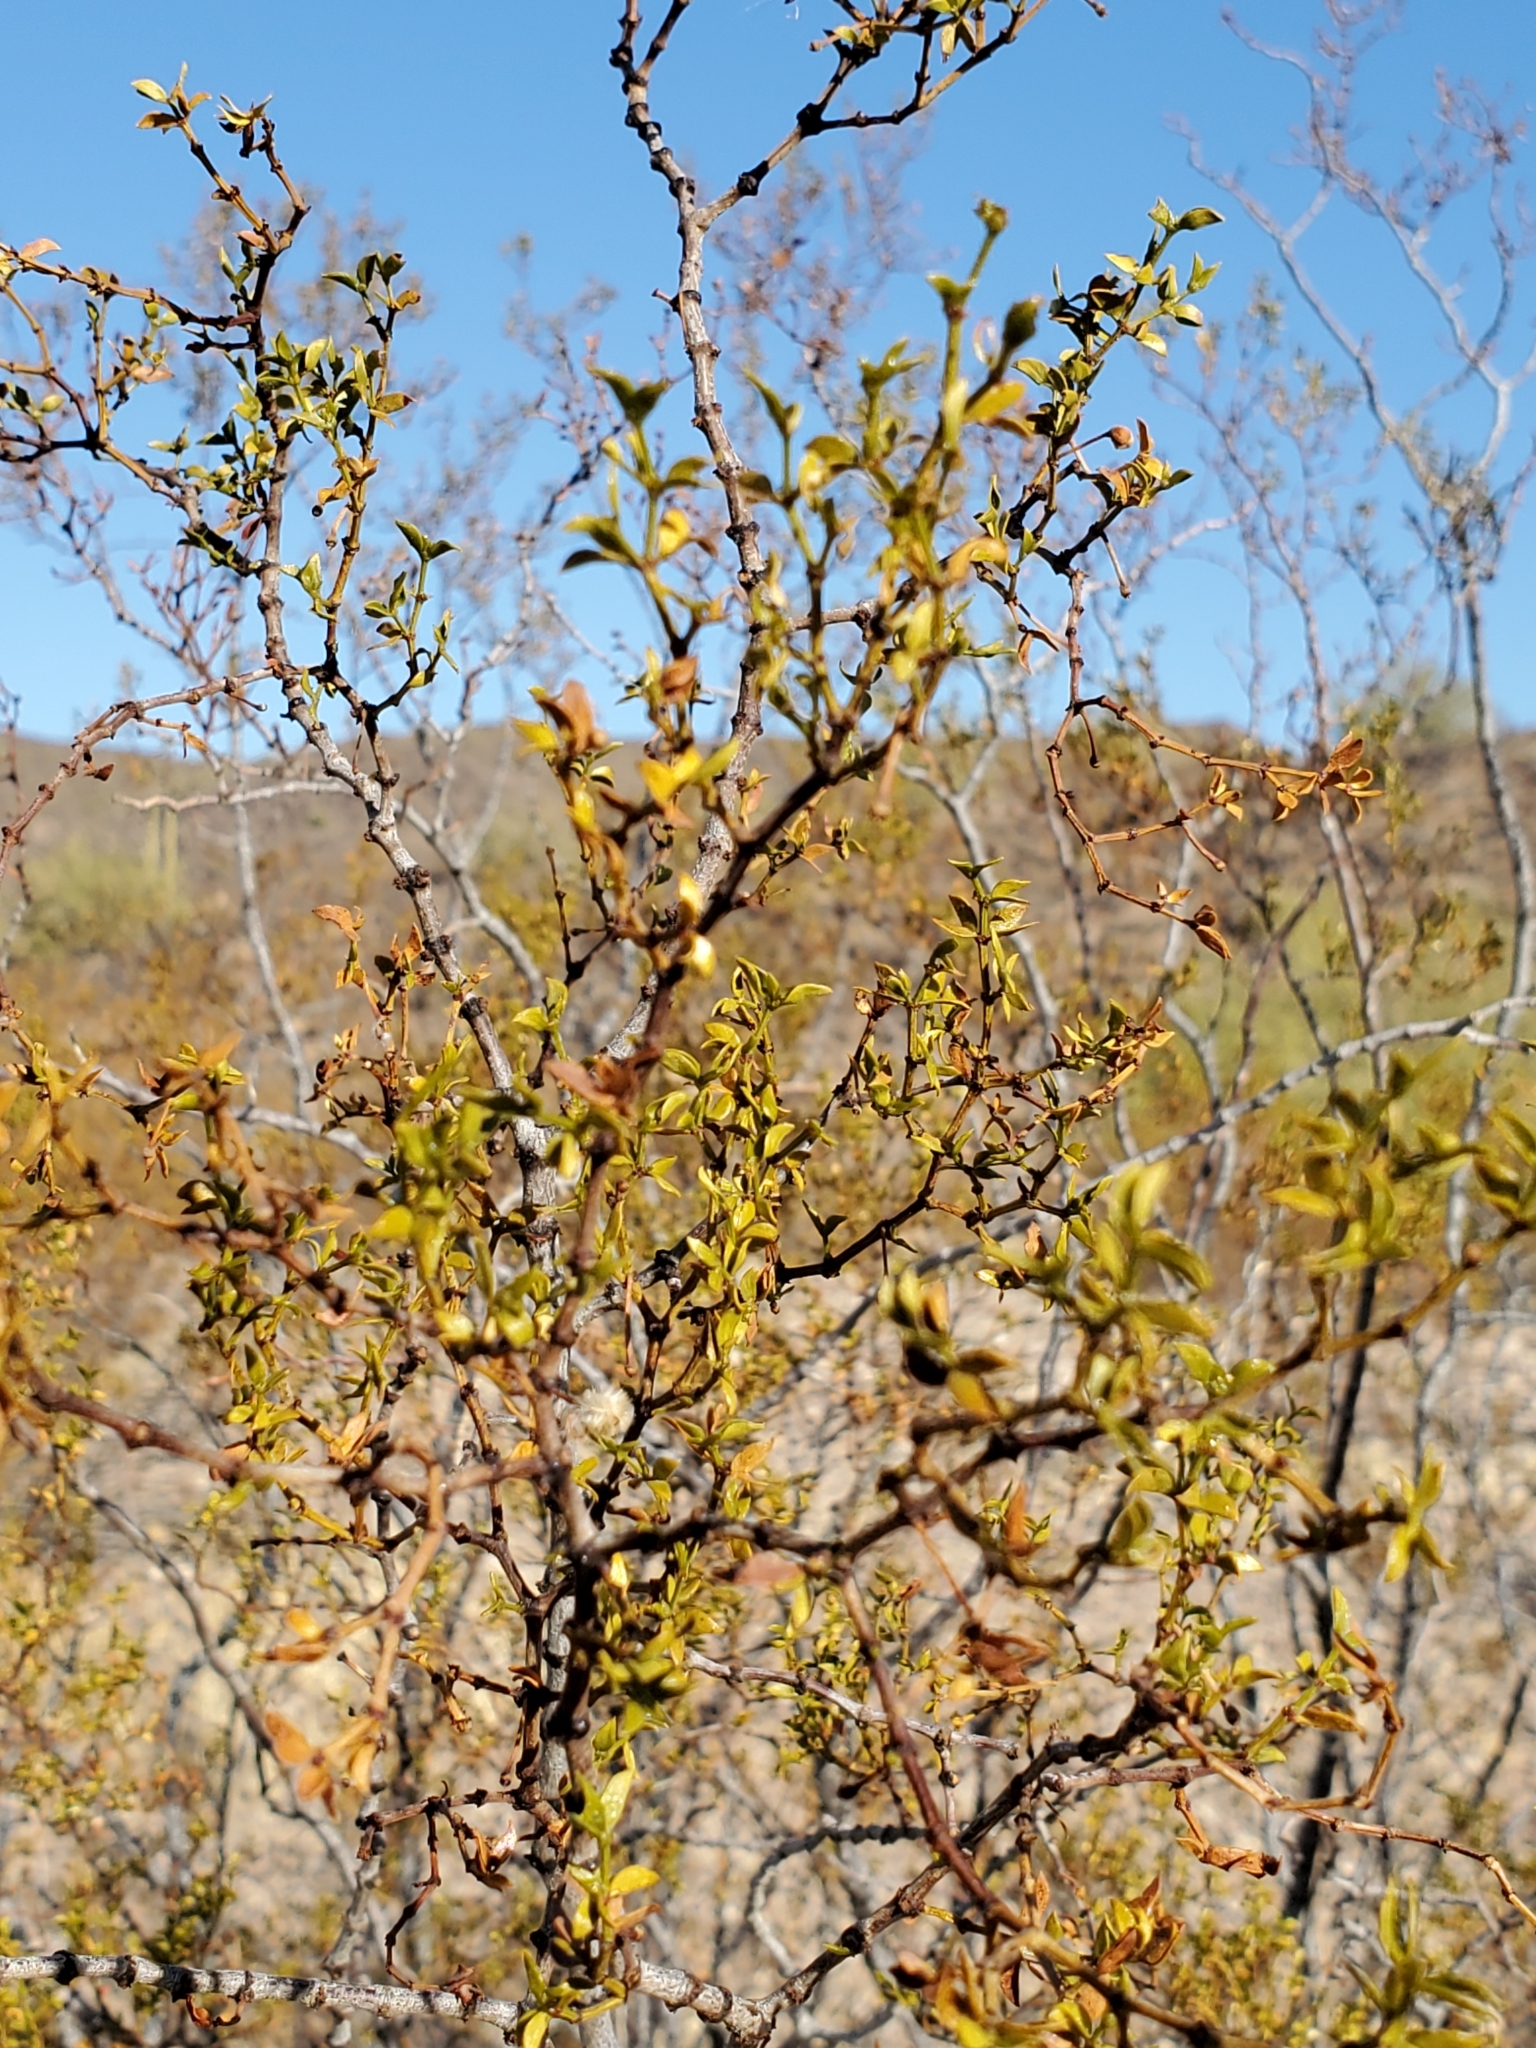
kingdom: Plantae
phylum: Tracheophyta
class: Magnoliopsida
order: Zygophyllales
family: Zygophyllaceae
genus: Larrea
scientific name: Larrea tridentata
